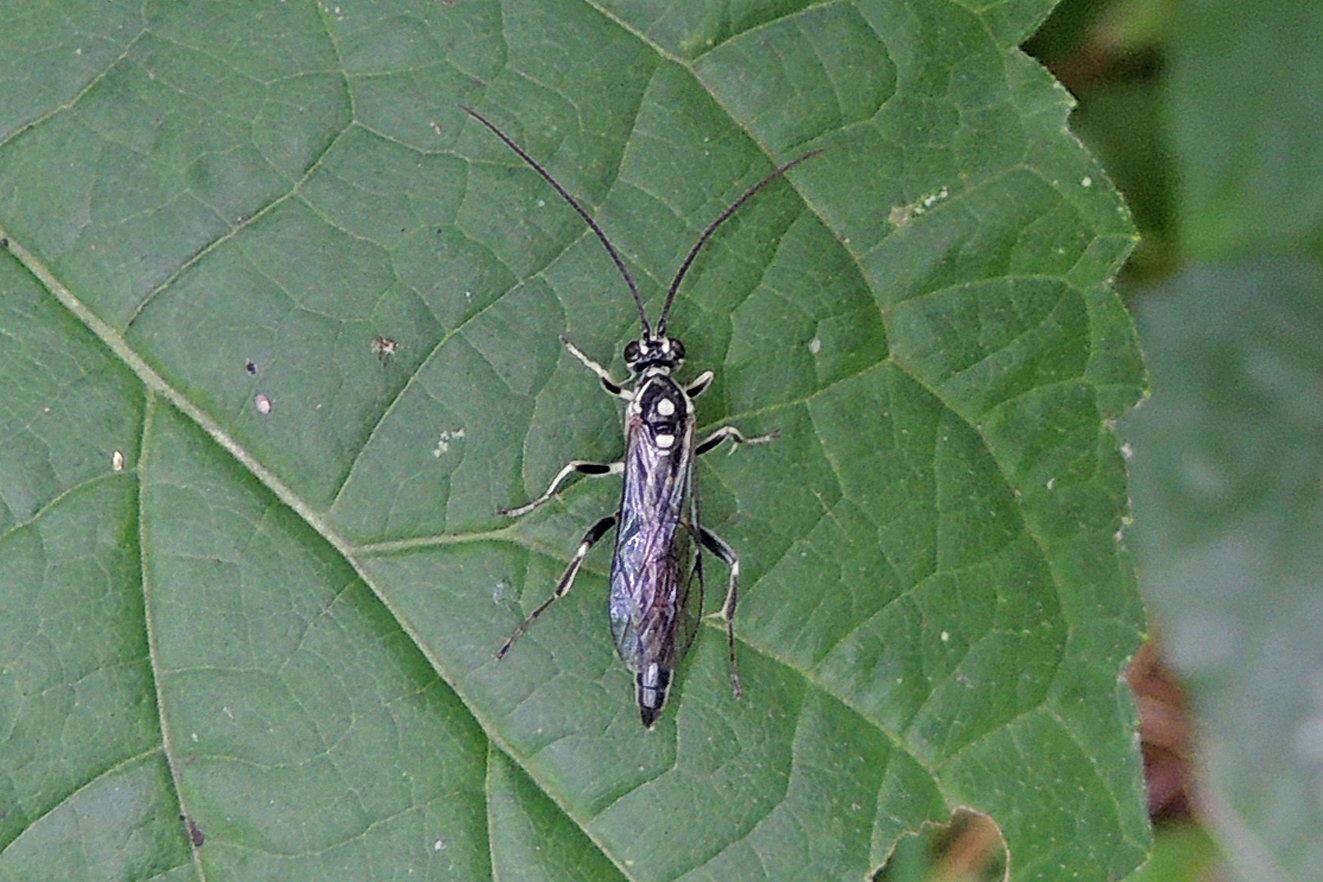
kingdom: Animalia
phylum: Arthropoda
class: Insecta
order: Hymenoptera
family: Ichneumonidae
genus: Cratichneumon
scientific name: Cratichneumon sublatus
